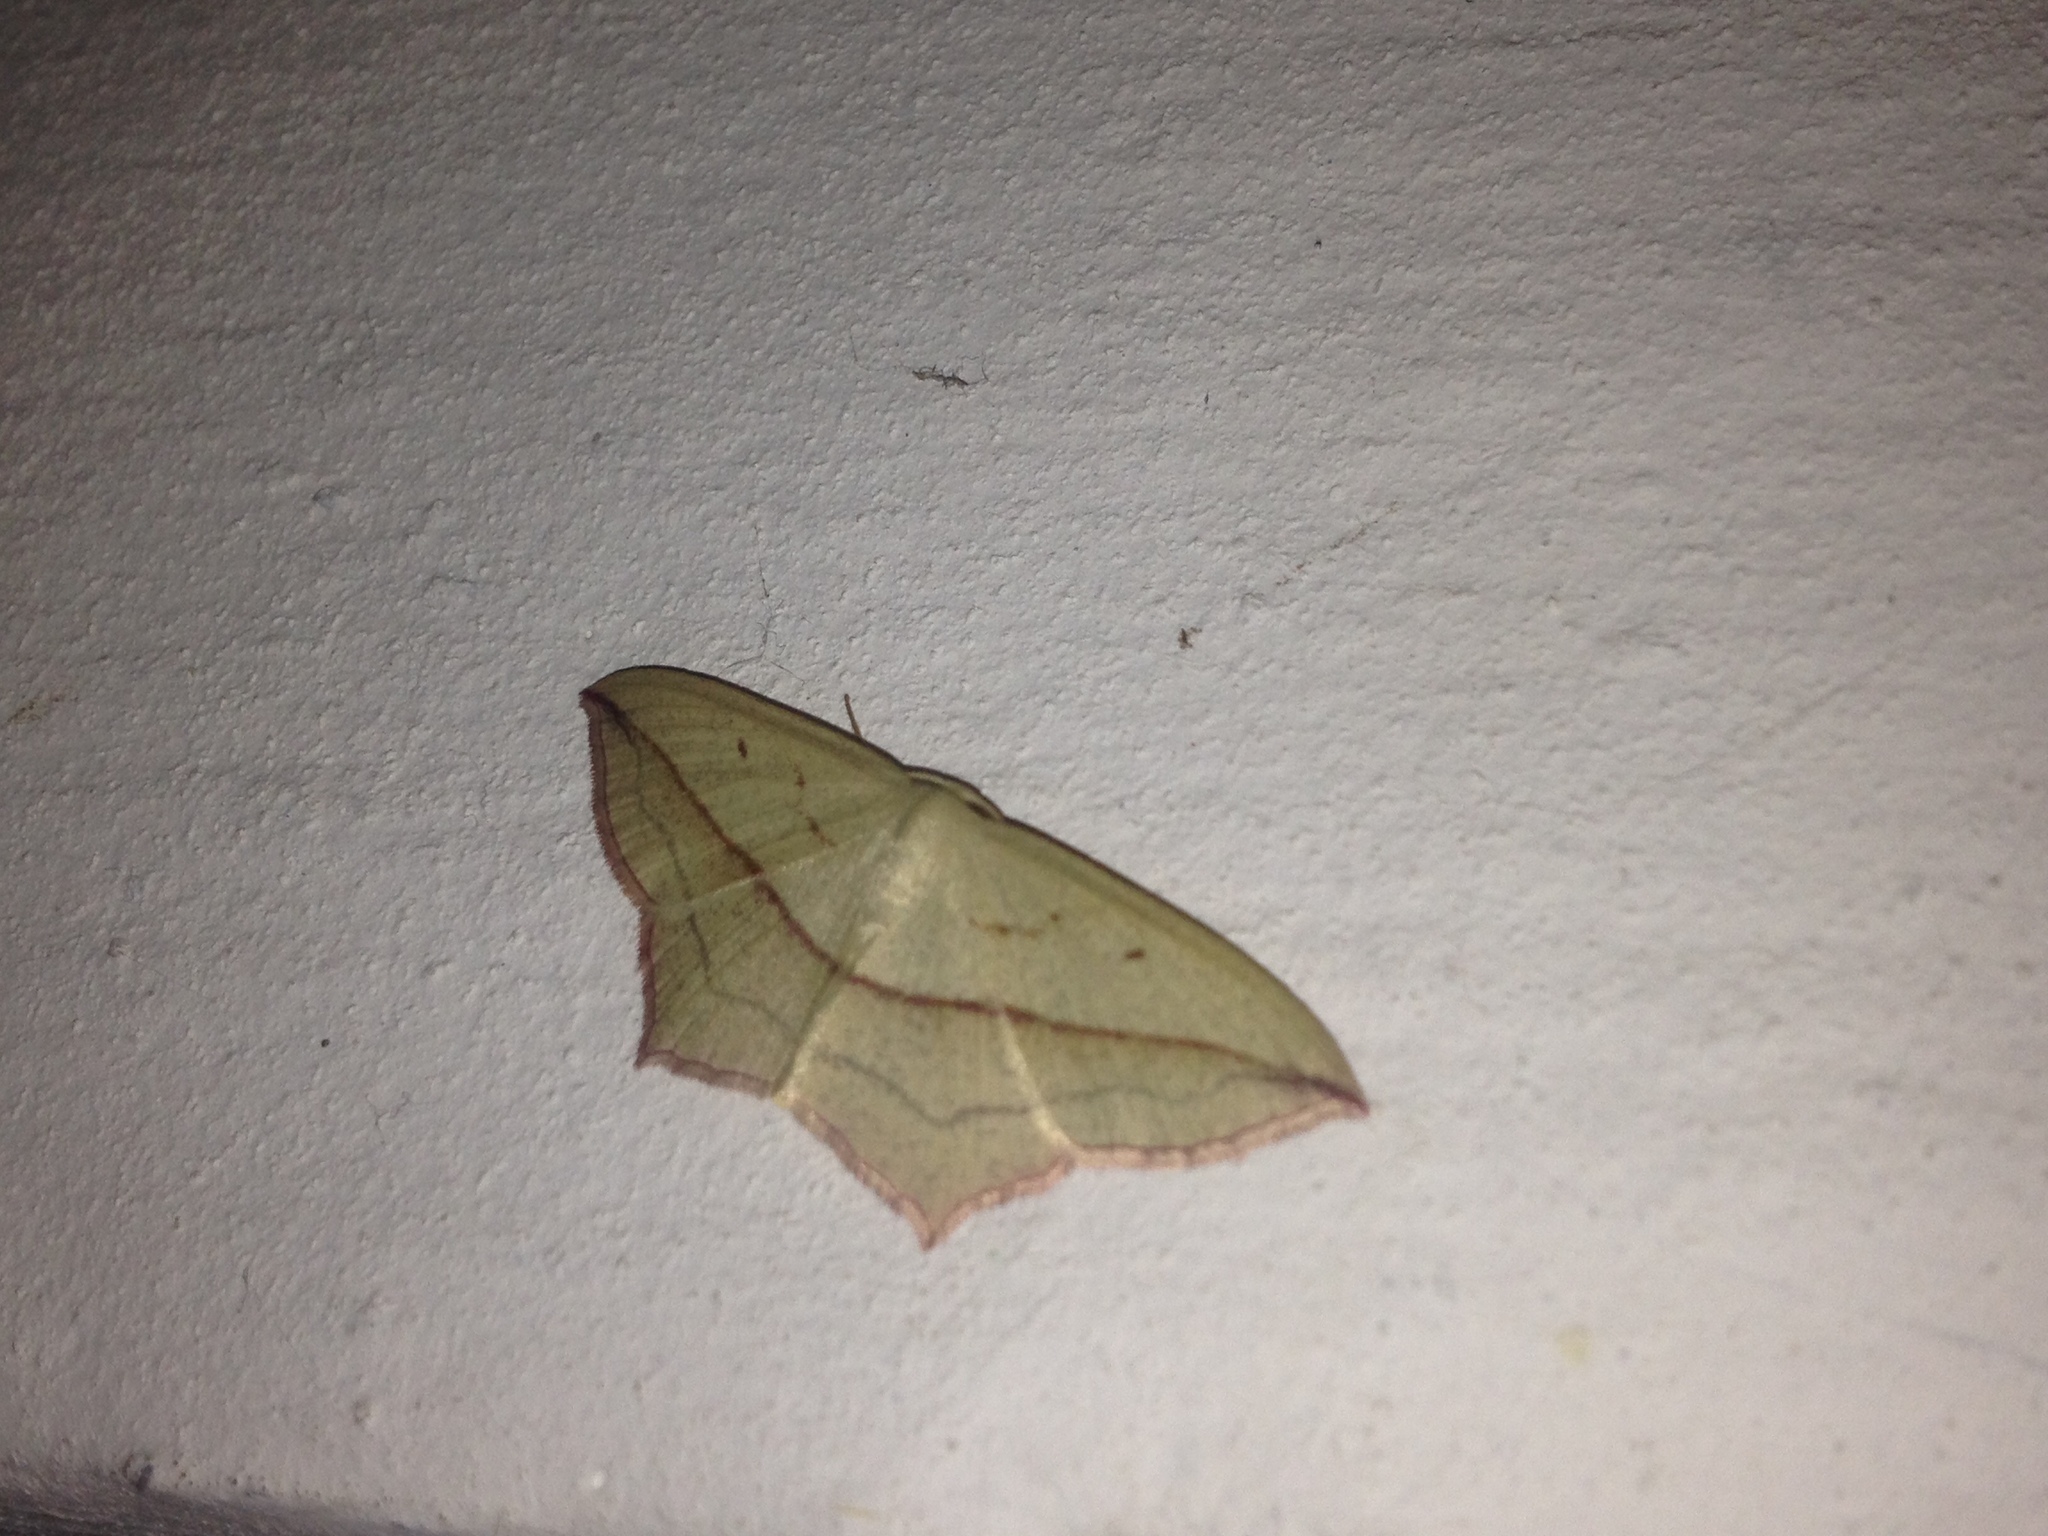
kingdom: Animalia
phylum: Arthropoda
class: Insecta
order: Lepidoptera
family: Geometridae
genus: Timandra
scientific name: Timandra comae
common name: Blood-vein
